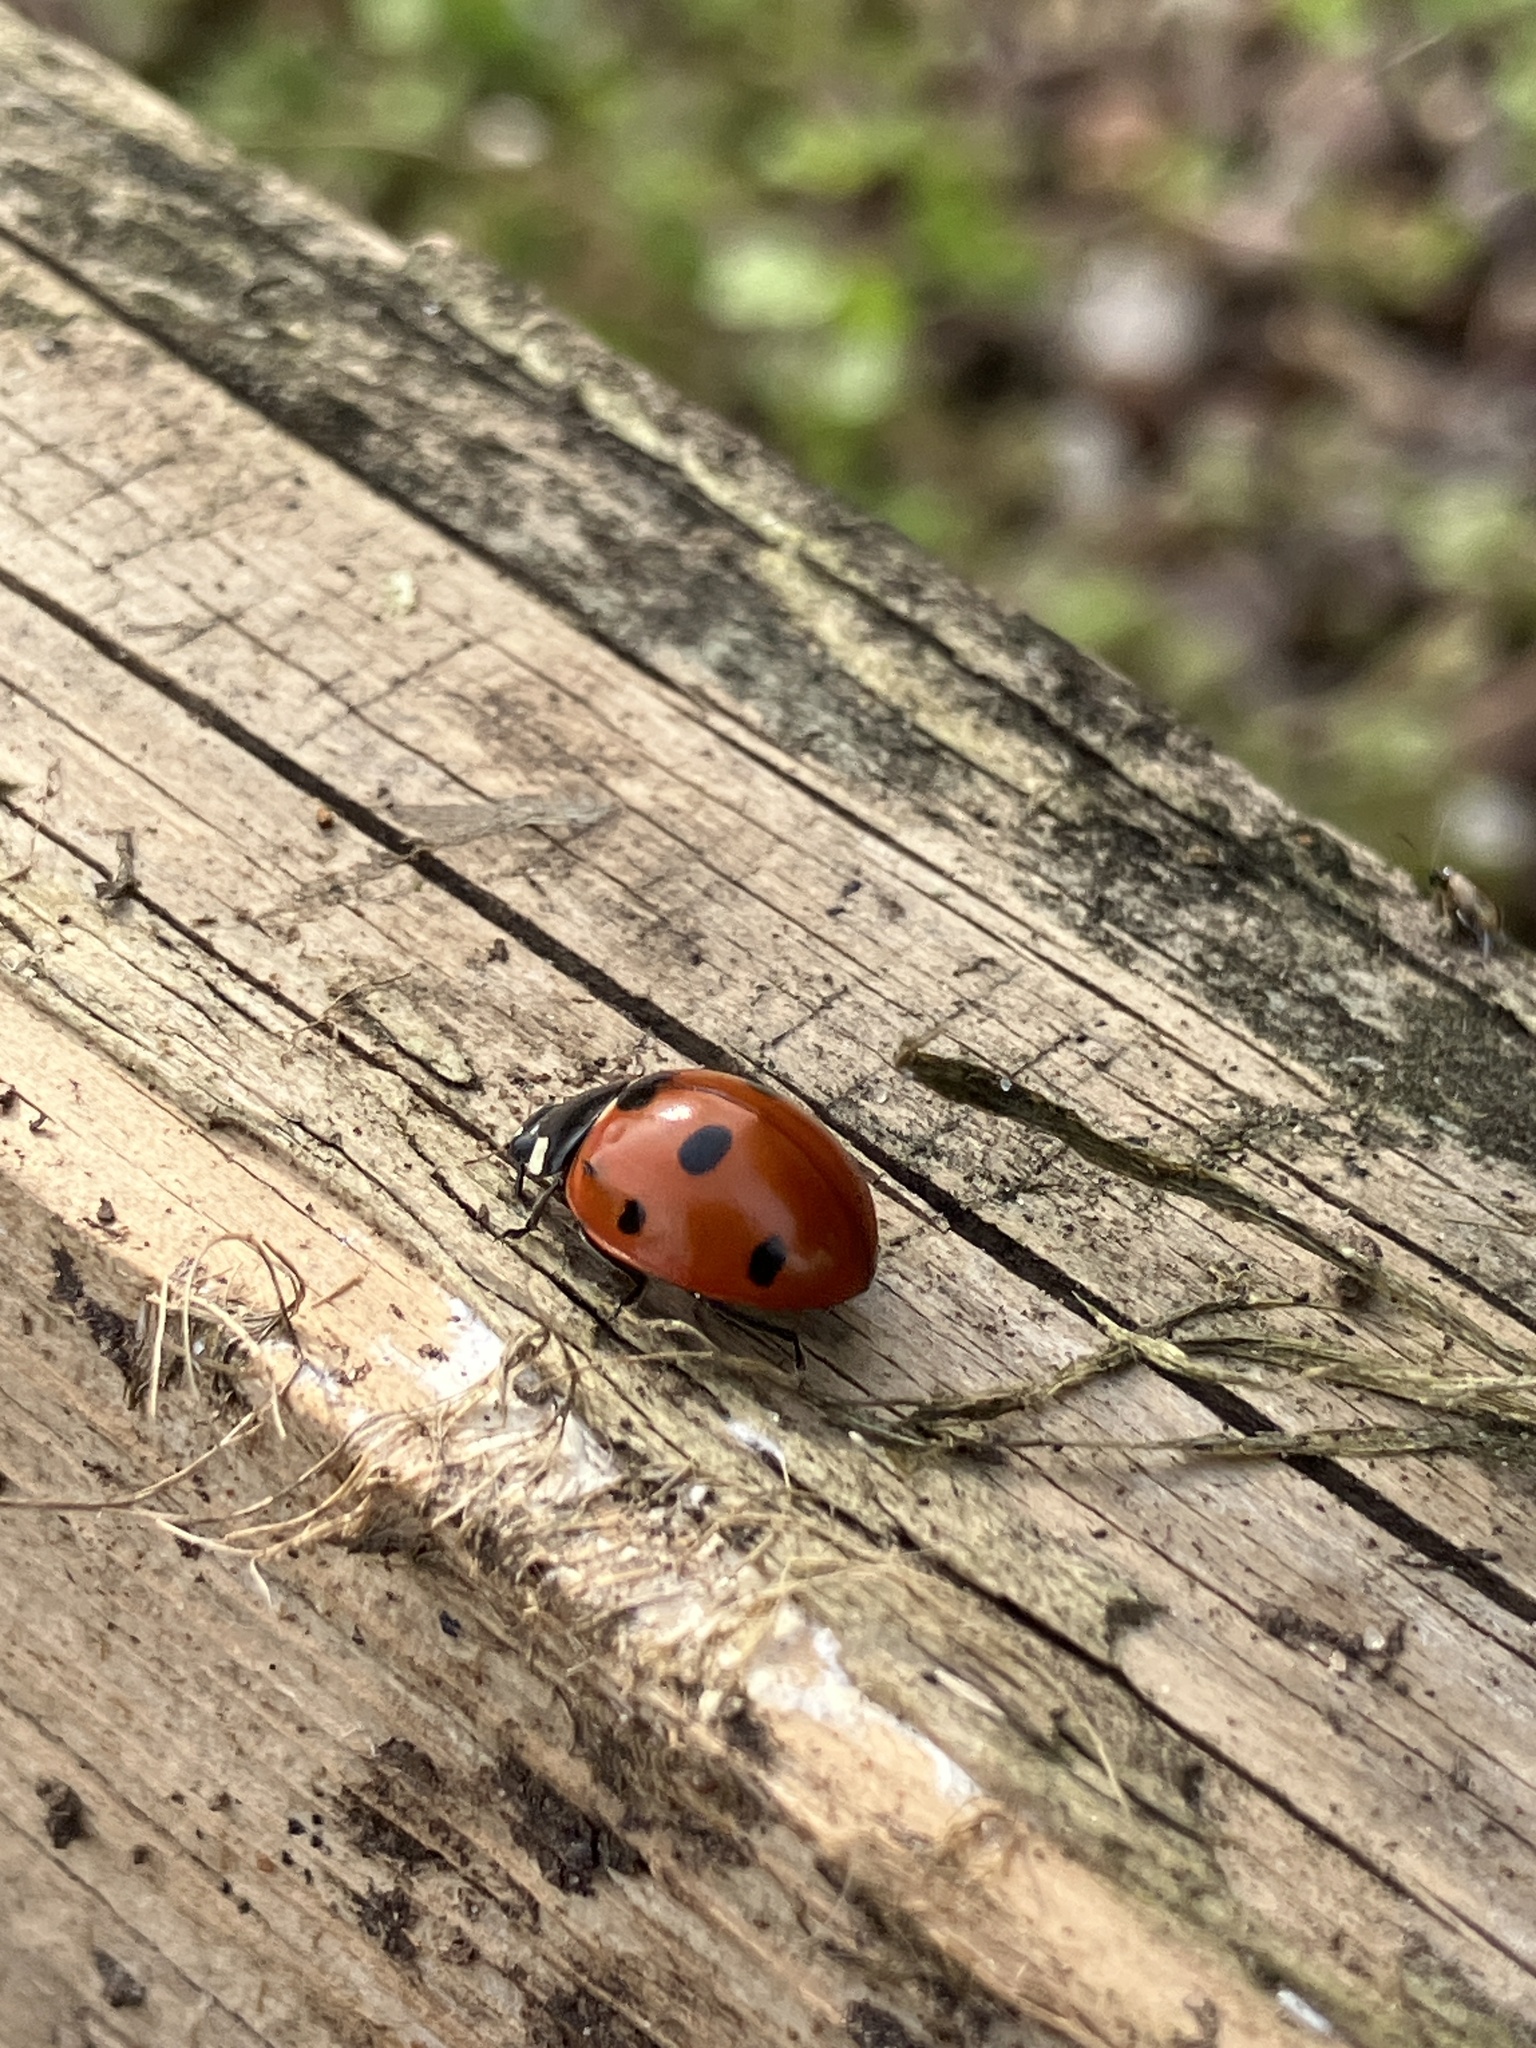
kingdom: Animalia
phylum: Arthropoda
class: Insecta
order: Coleoptera
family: Coccinellidae
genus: Coccinella
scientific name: Coccinella septempunctata
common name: Sevenspotted lady beetle
